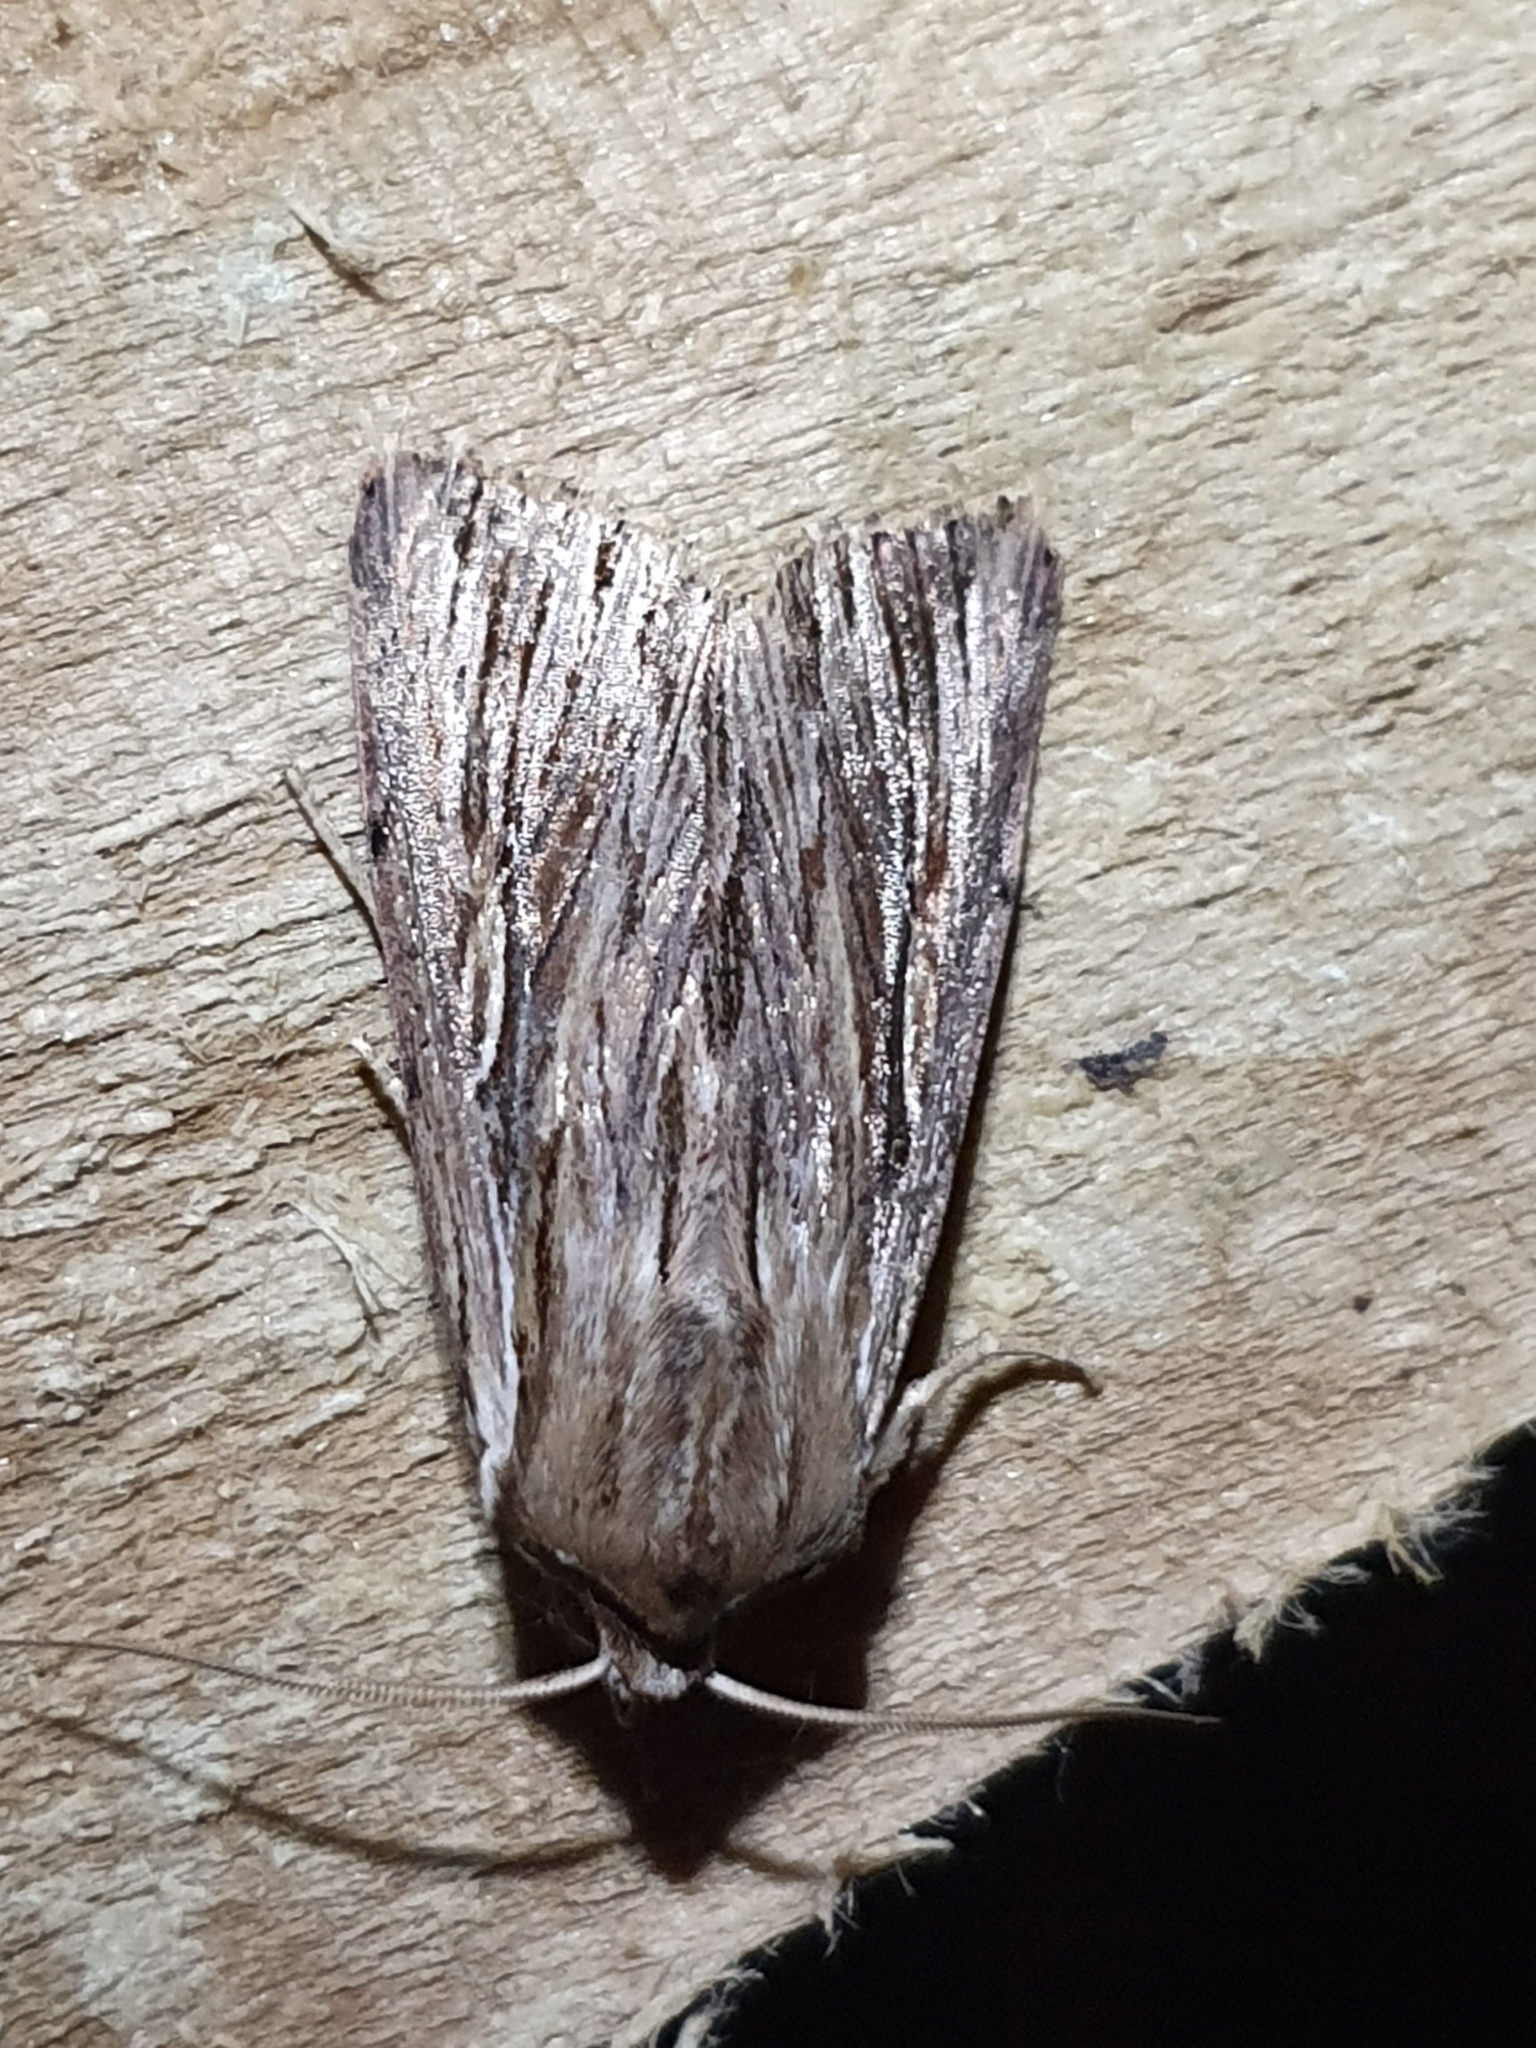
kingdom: Animalia
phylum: Arthropoda
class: Insecta
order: Lepidoptera
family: Noctuidae
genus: Persectania
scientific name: Persectania aversa
